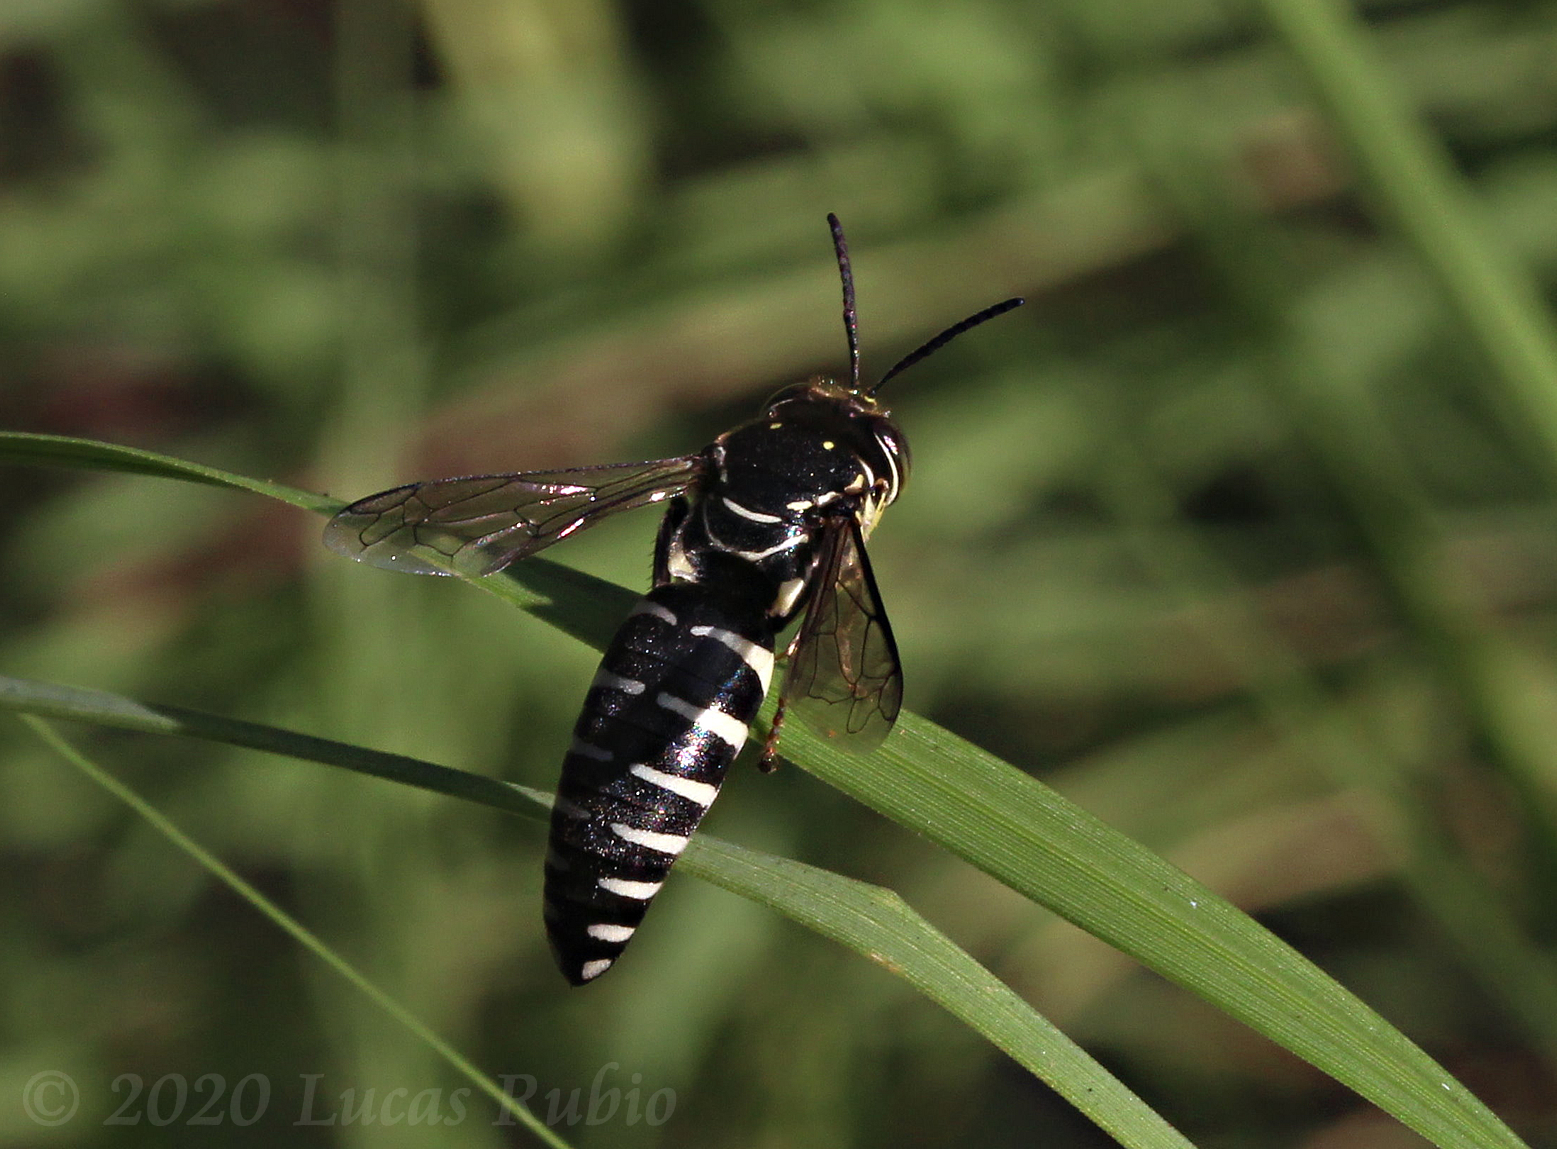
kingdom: Animalia
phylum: Arthropoda
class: Insecta
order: Hymenoptera
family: Crabronidae
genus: Bicyrtes
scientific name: Bicyrtes discisus
